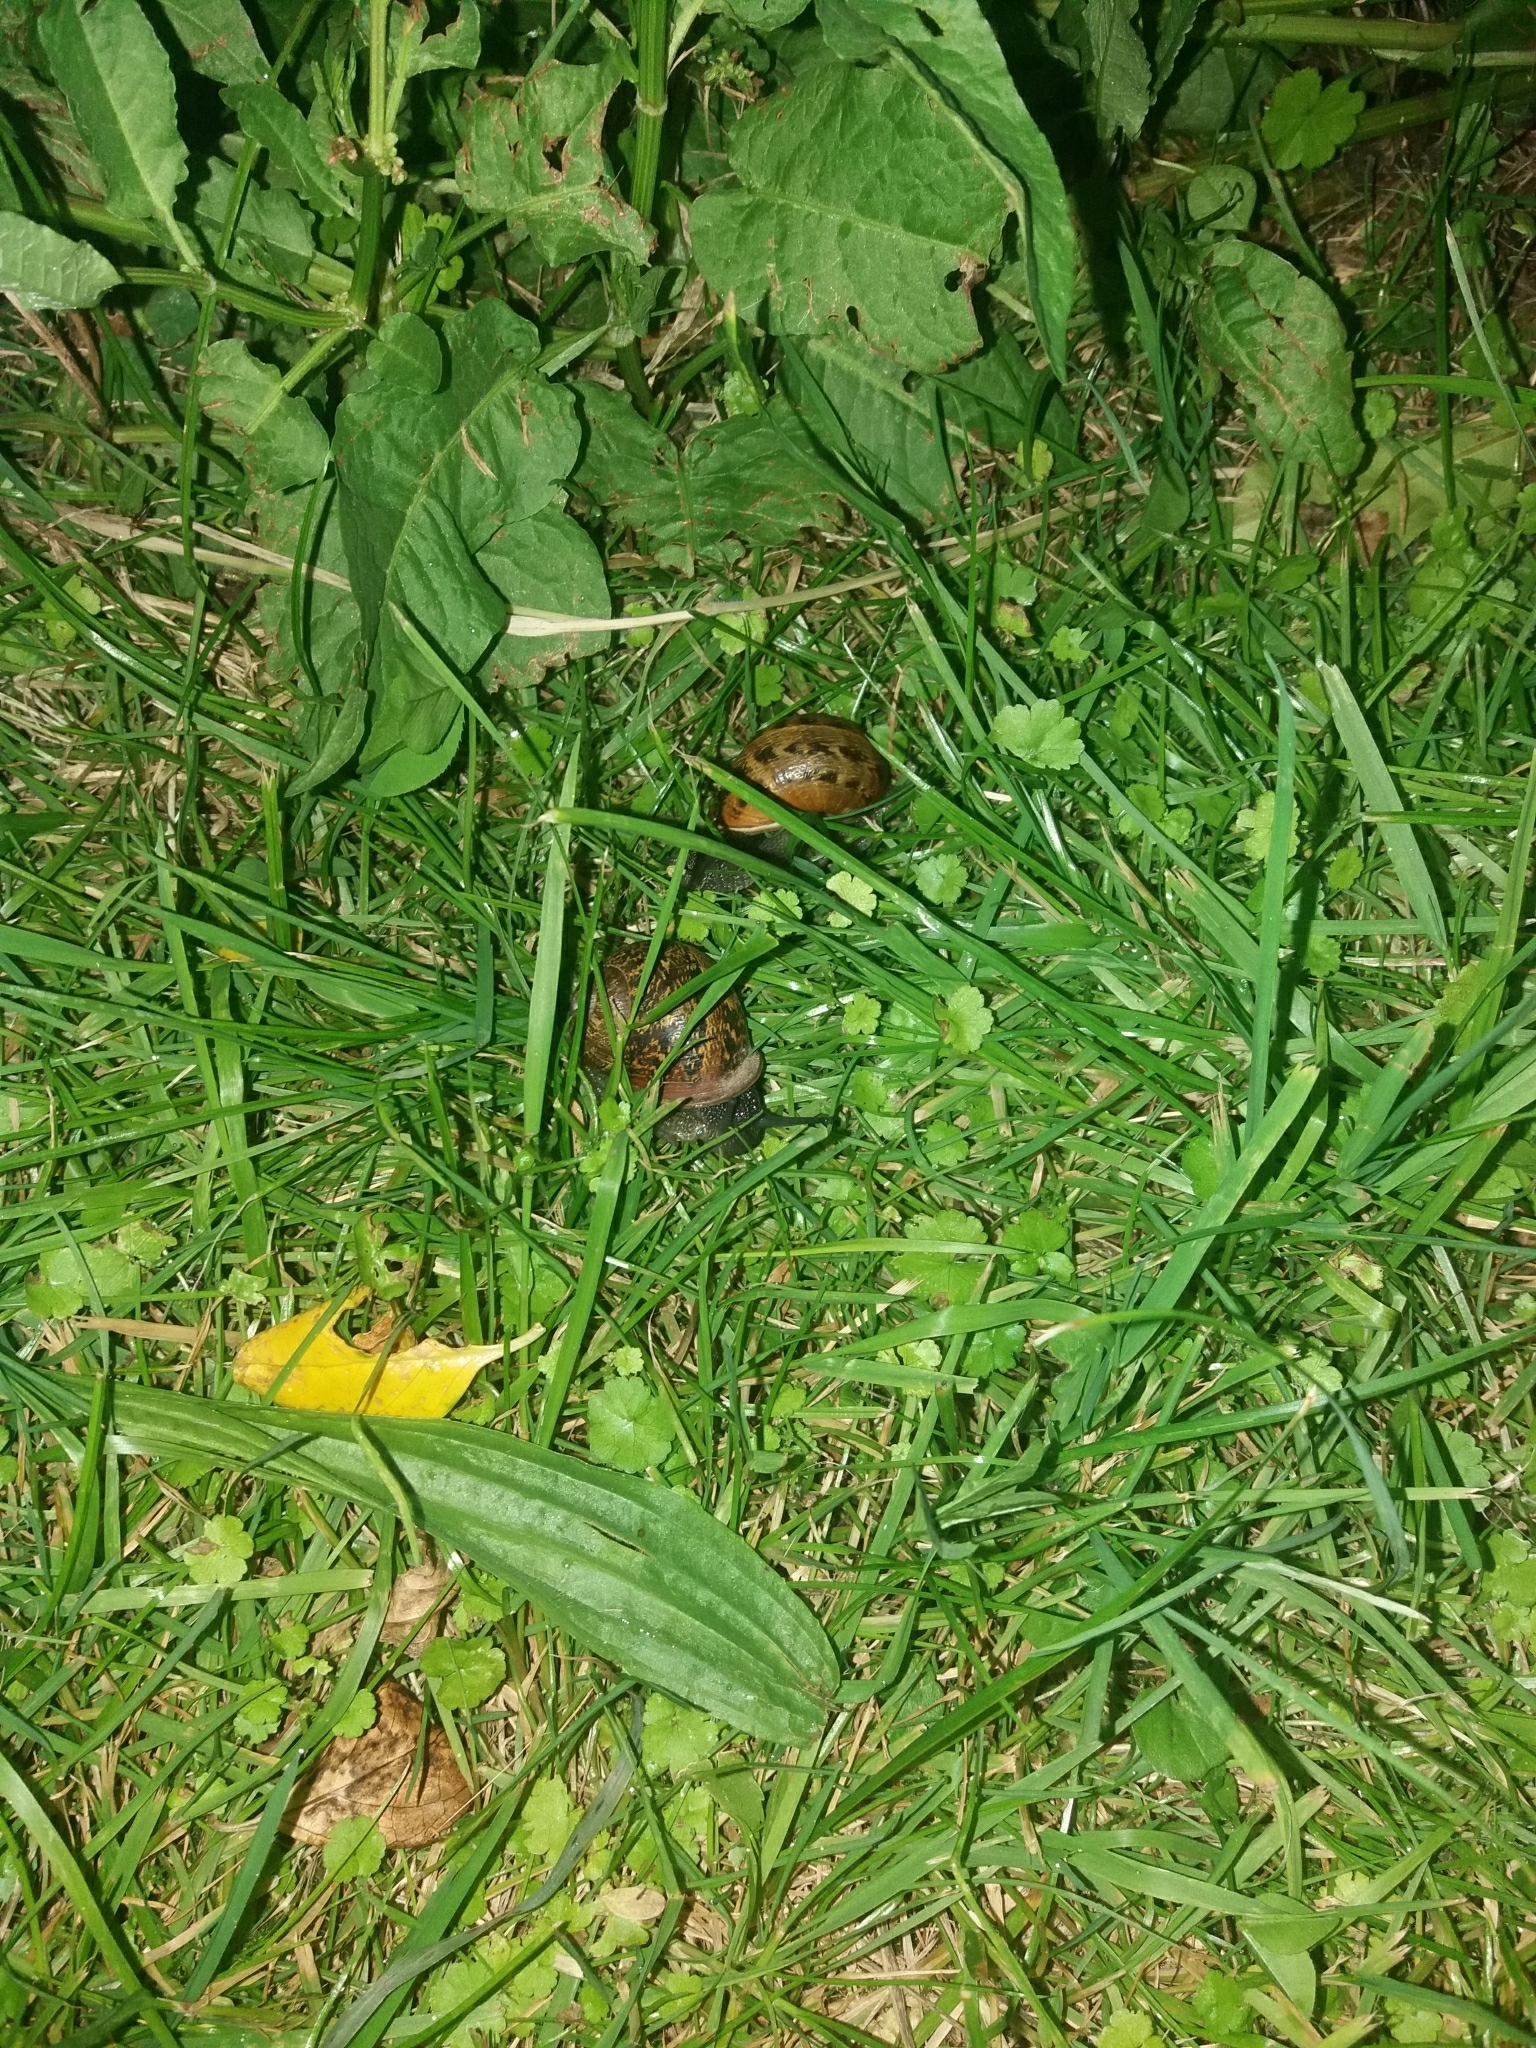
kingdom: Animalia
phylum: Mollusca
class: Gastropoda
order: Stylommatophora
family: Helicidae
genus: Cornu
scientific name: Cornu aspersum
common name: Brown garden snail
